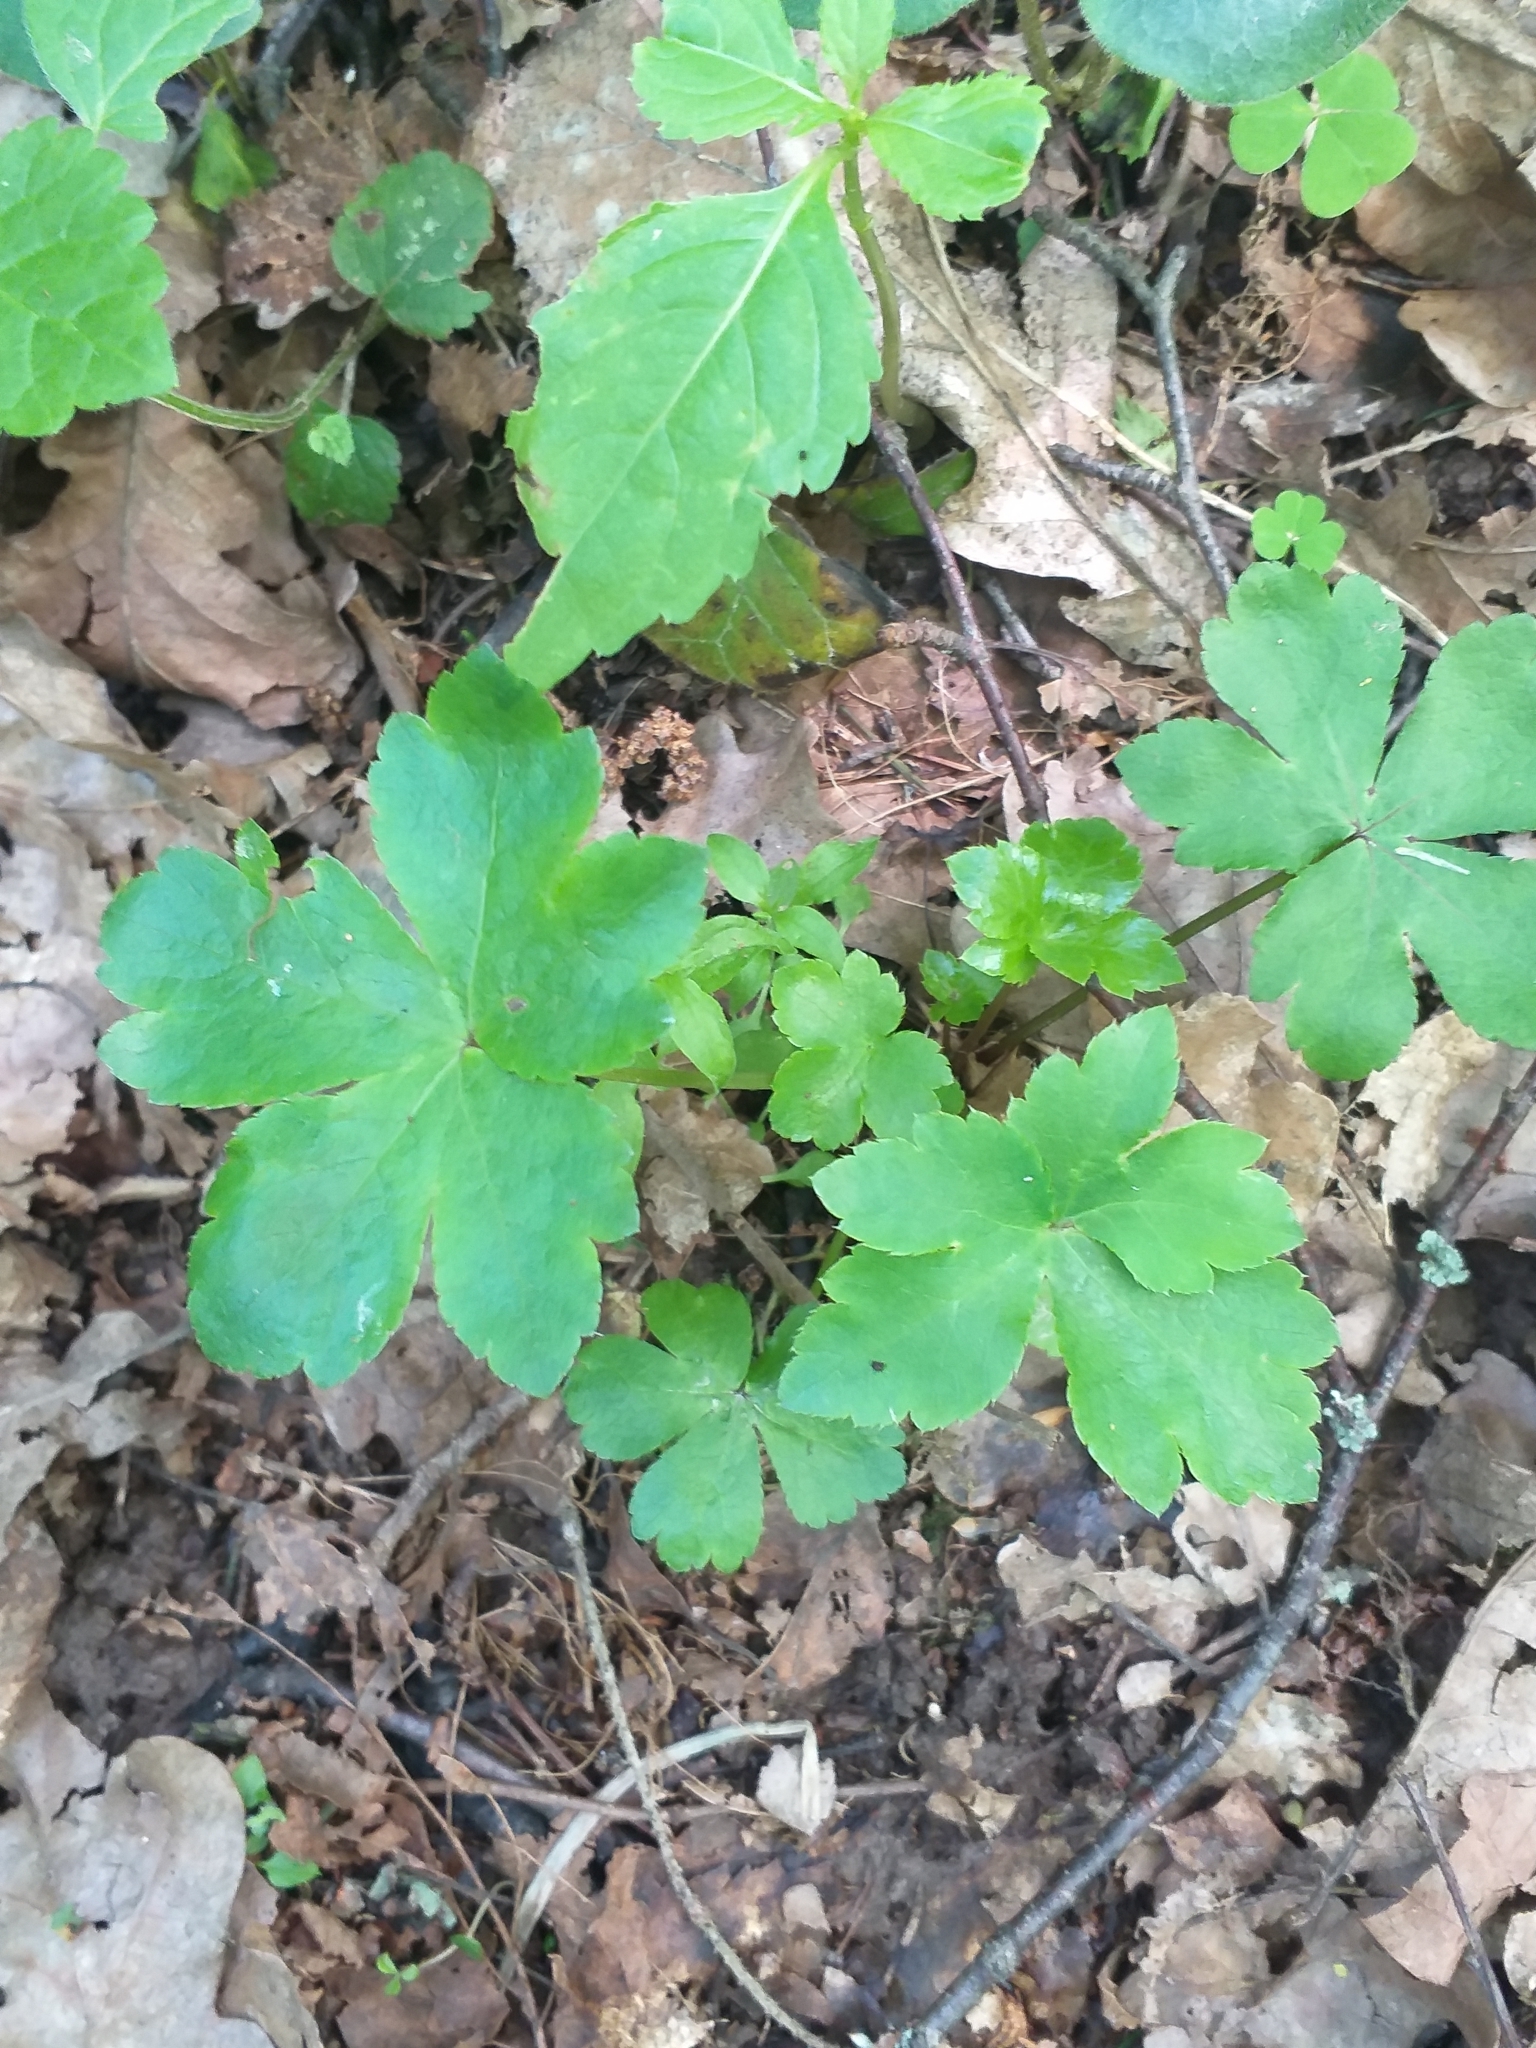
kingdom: Plantae
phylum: Tracheophyta
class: Magnoliopsida
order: Apiales
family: Apiaceae
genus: Sanicula
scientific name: Sanicula europaea
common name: Sanicle
